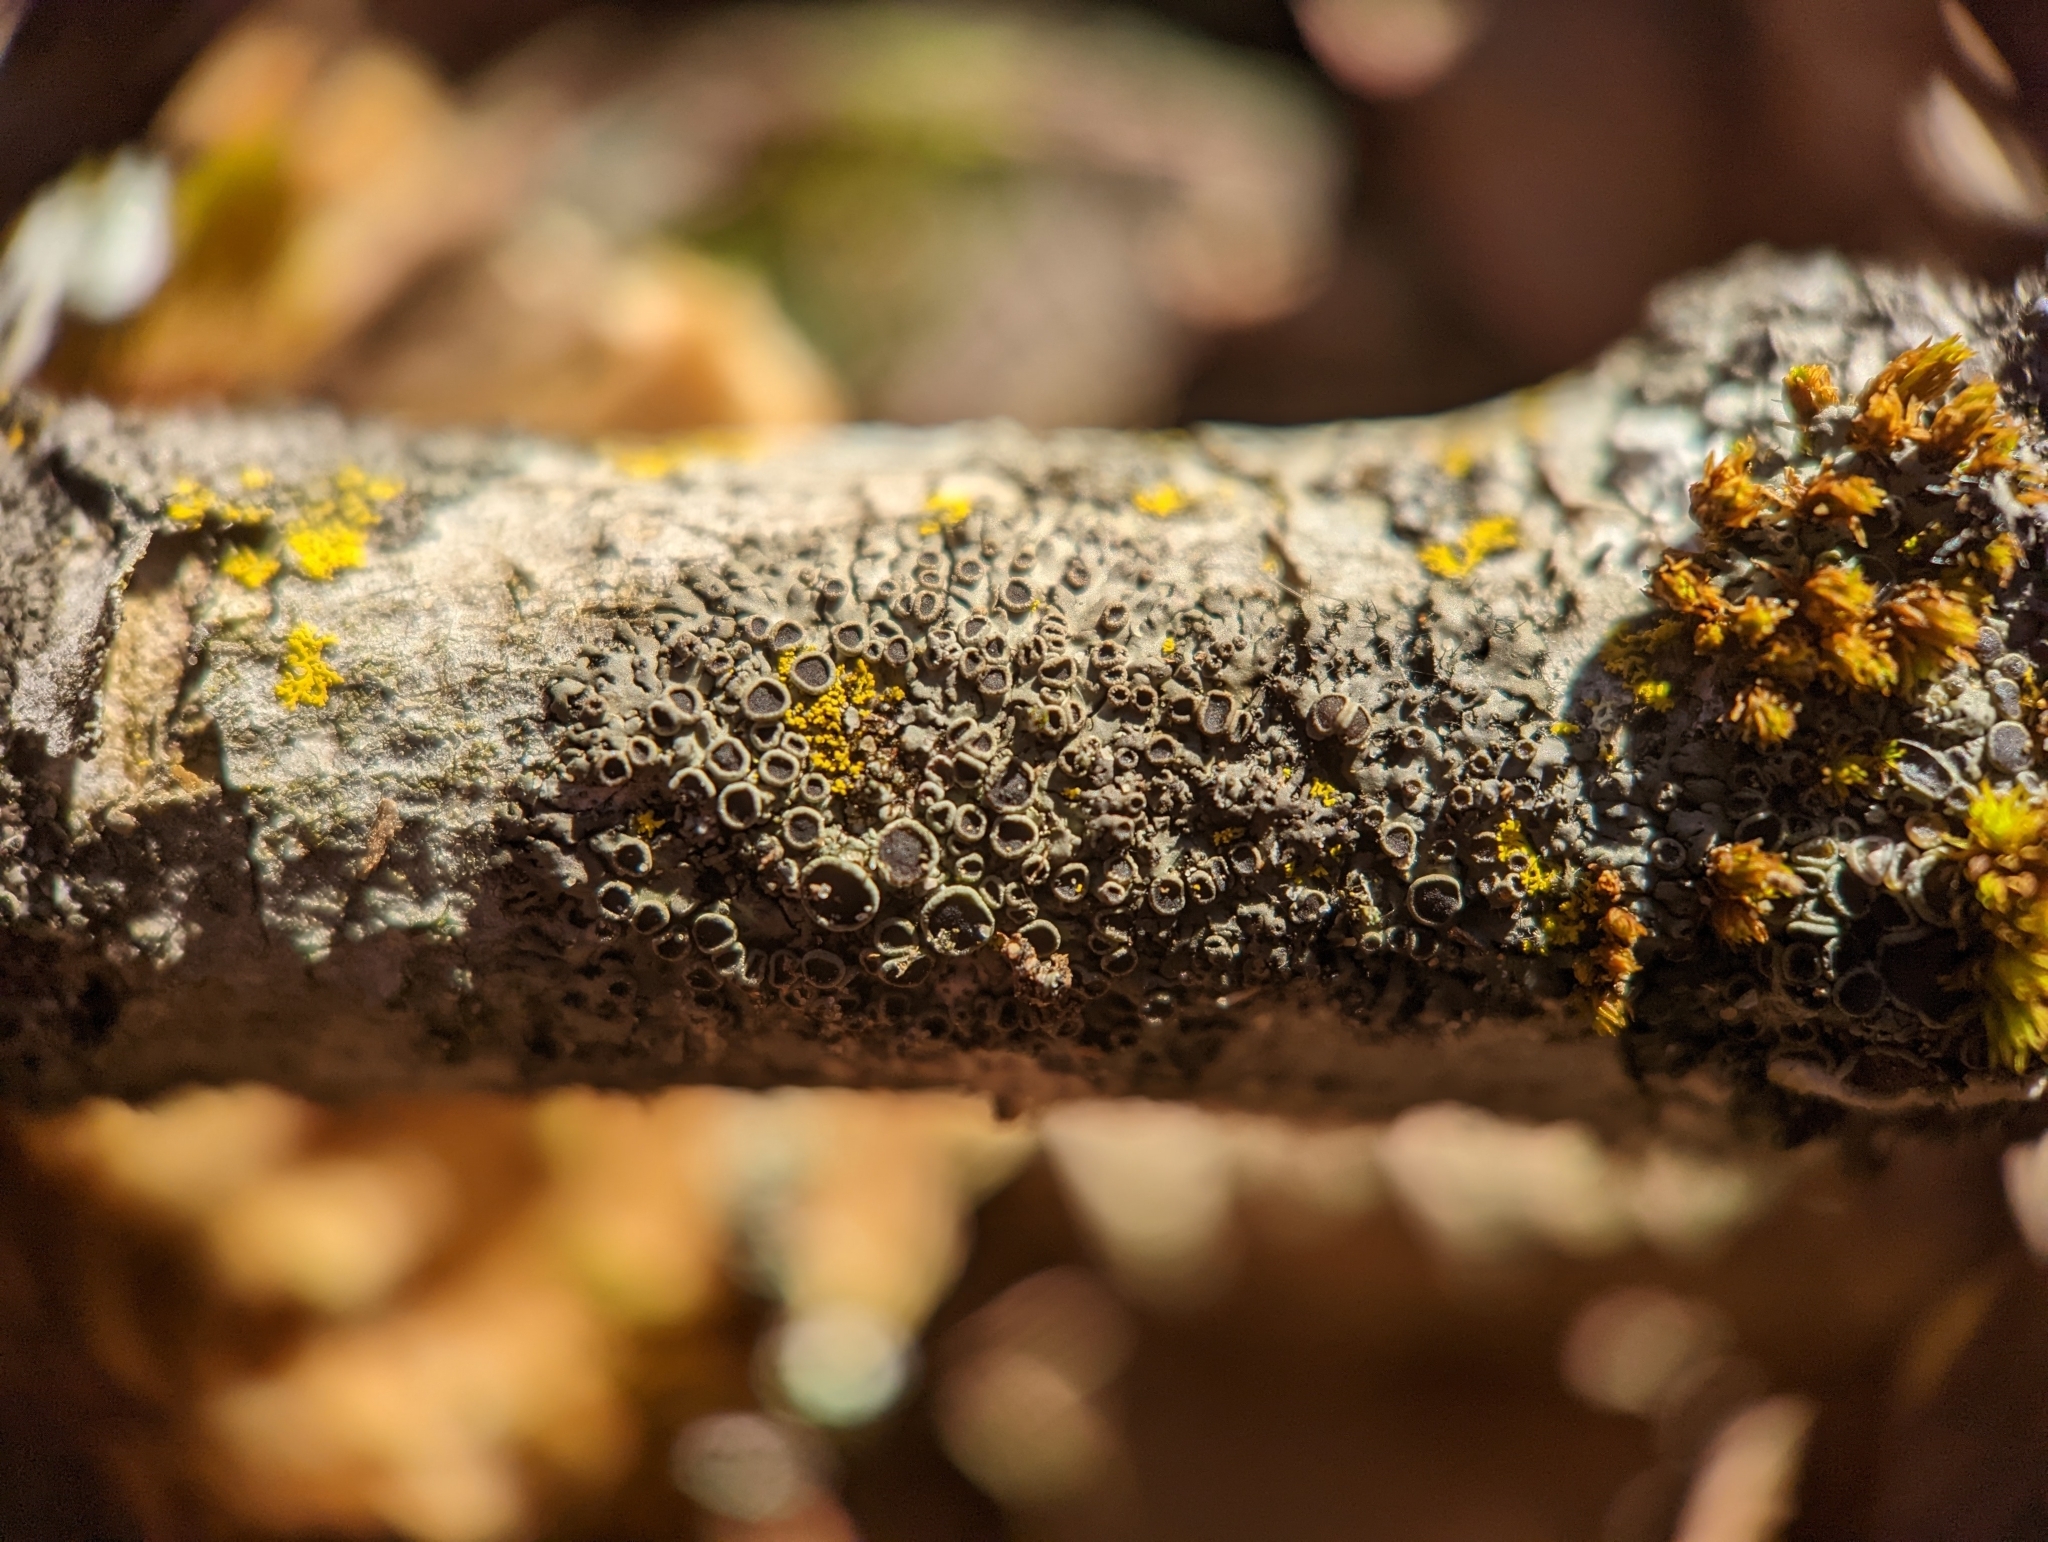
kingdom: Fungi
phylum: Ascomycota
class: Lecanoromycetes
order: Caliciales
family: Physciaceae
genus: Phaeophyscia
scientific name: Phaeophyscia ciliata
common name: Smooth shadow lichen
